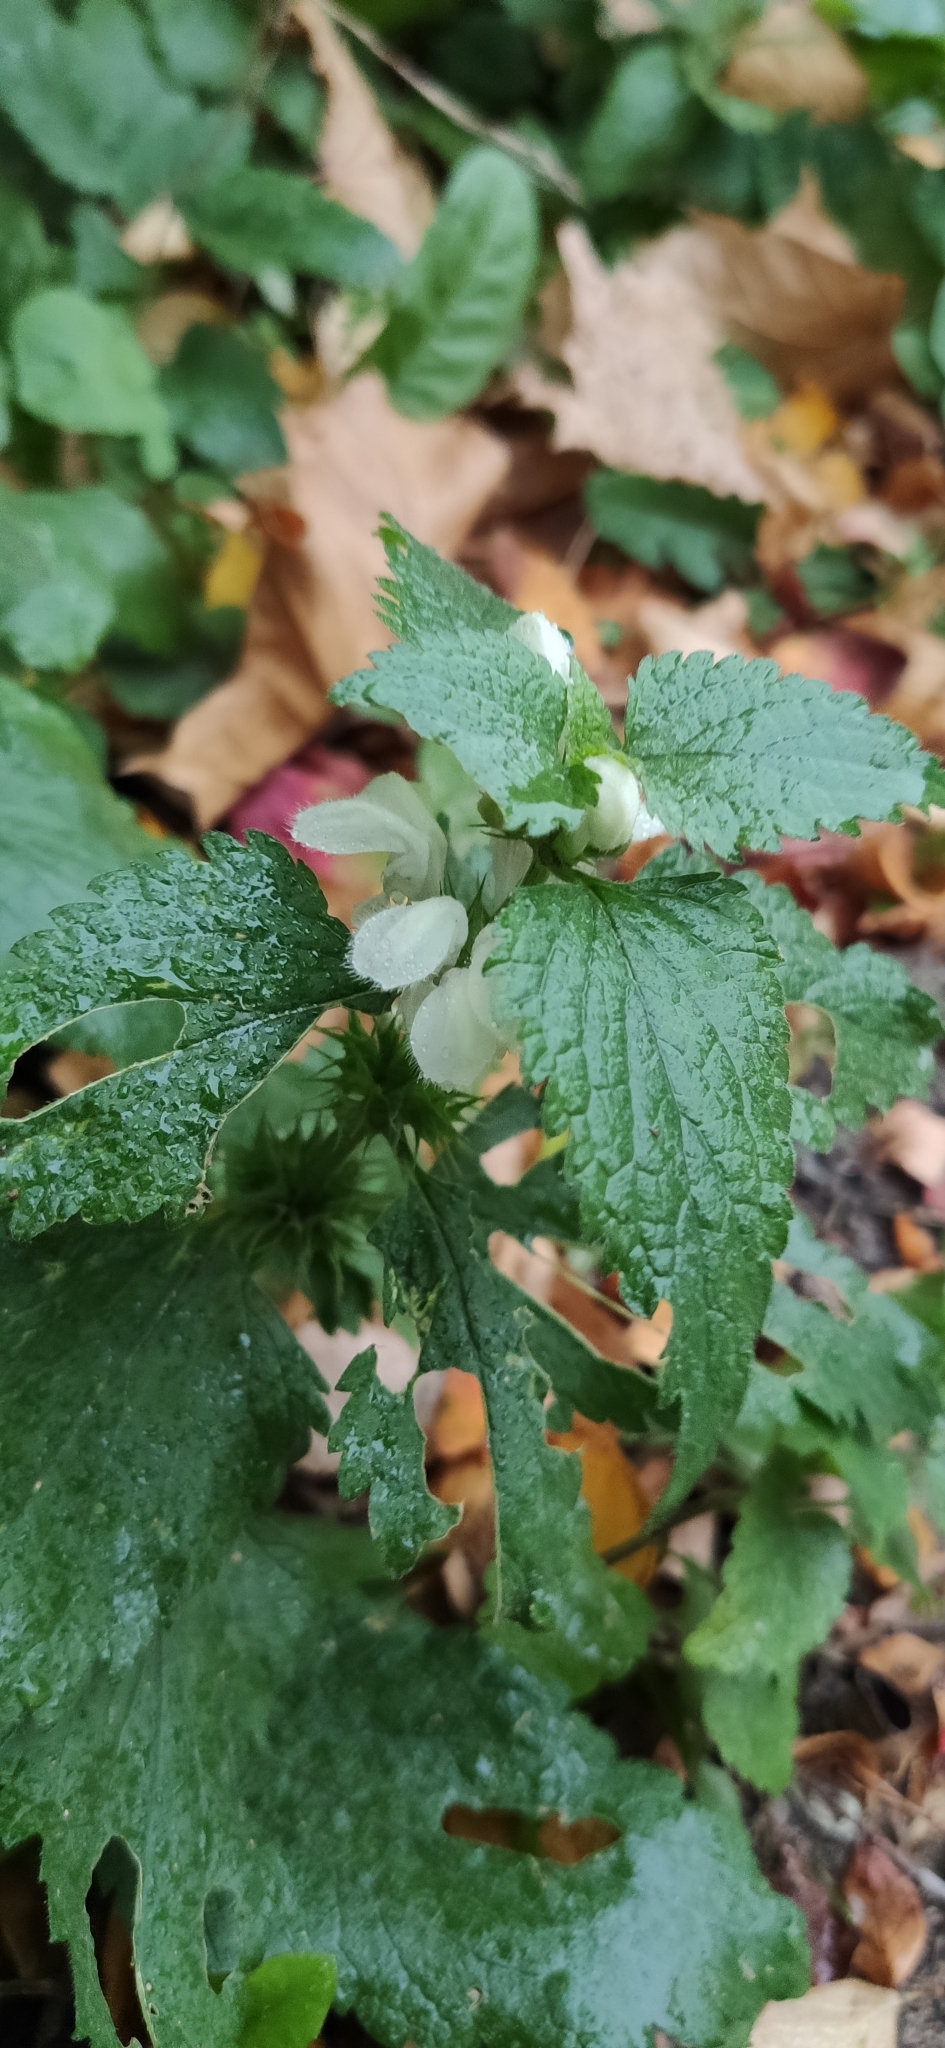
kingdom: Plantae
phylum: Tracheophyta
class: Magnoliopsida
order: Lamiales
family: Lamiaceae
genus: Lamium
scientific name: Lamium album
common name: White dead-nettle
